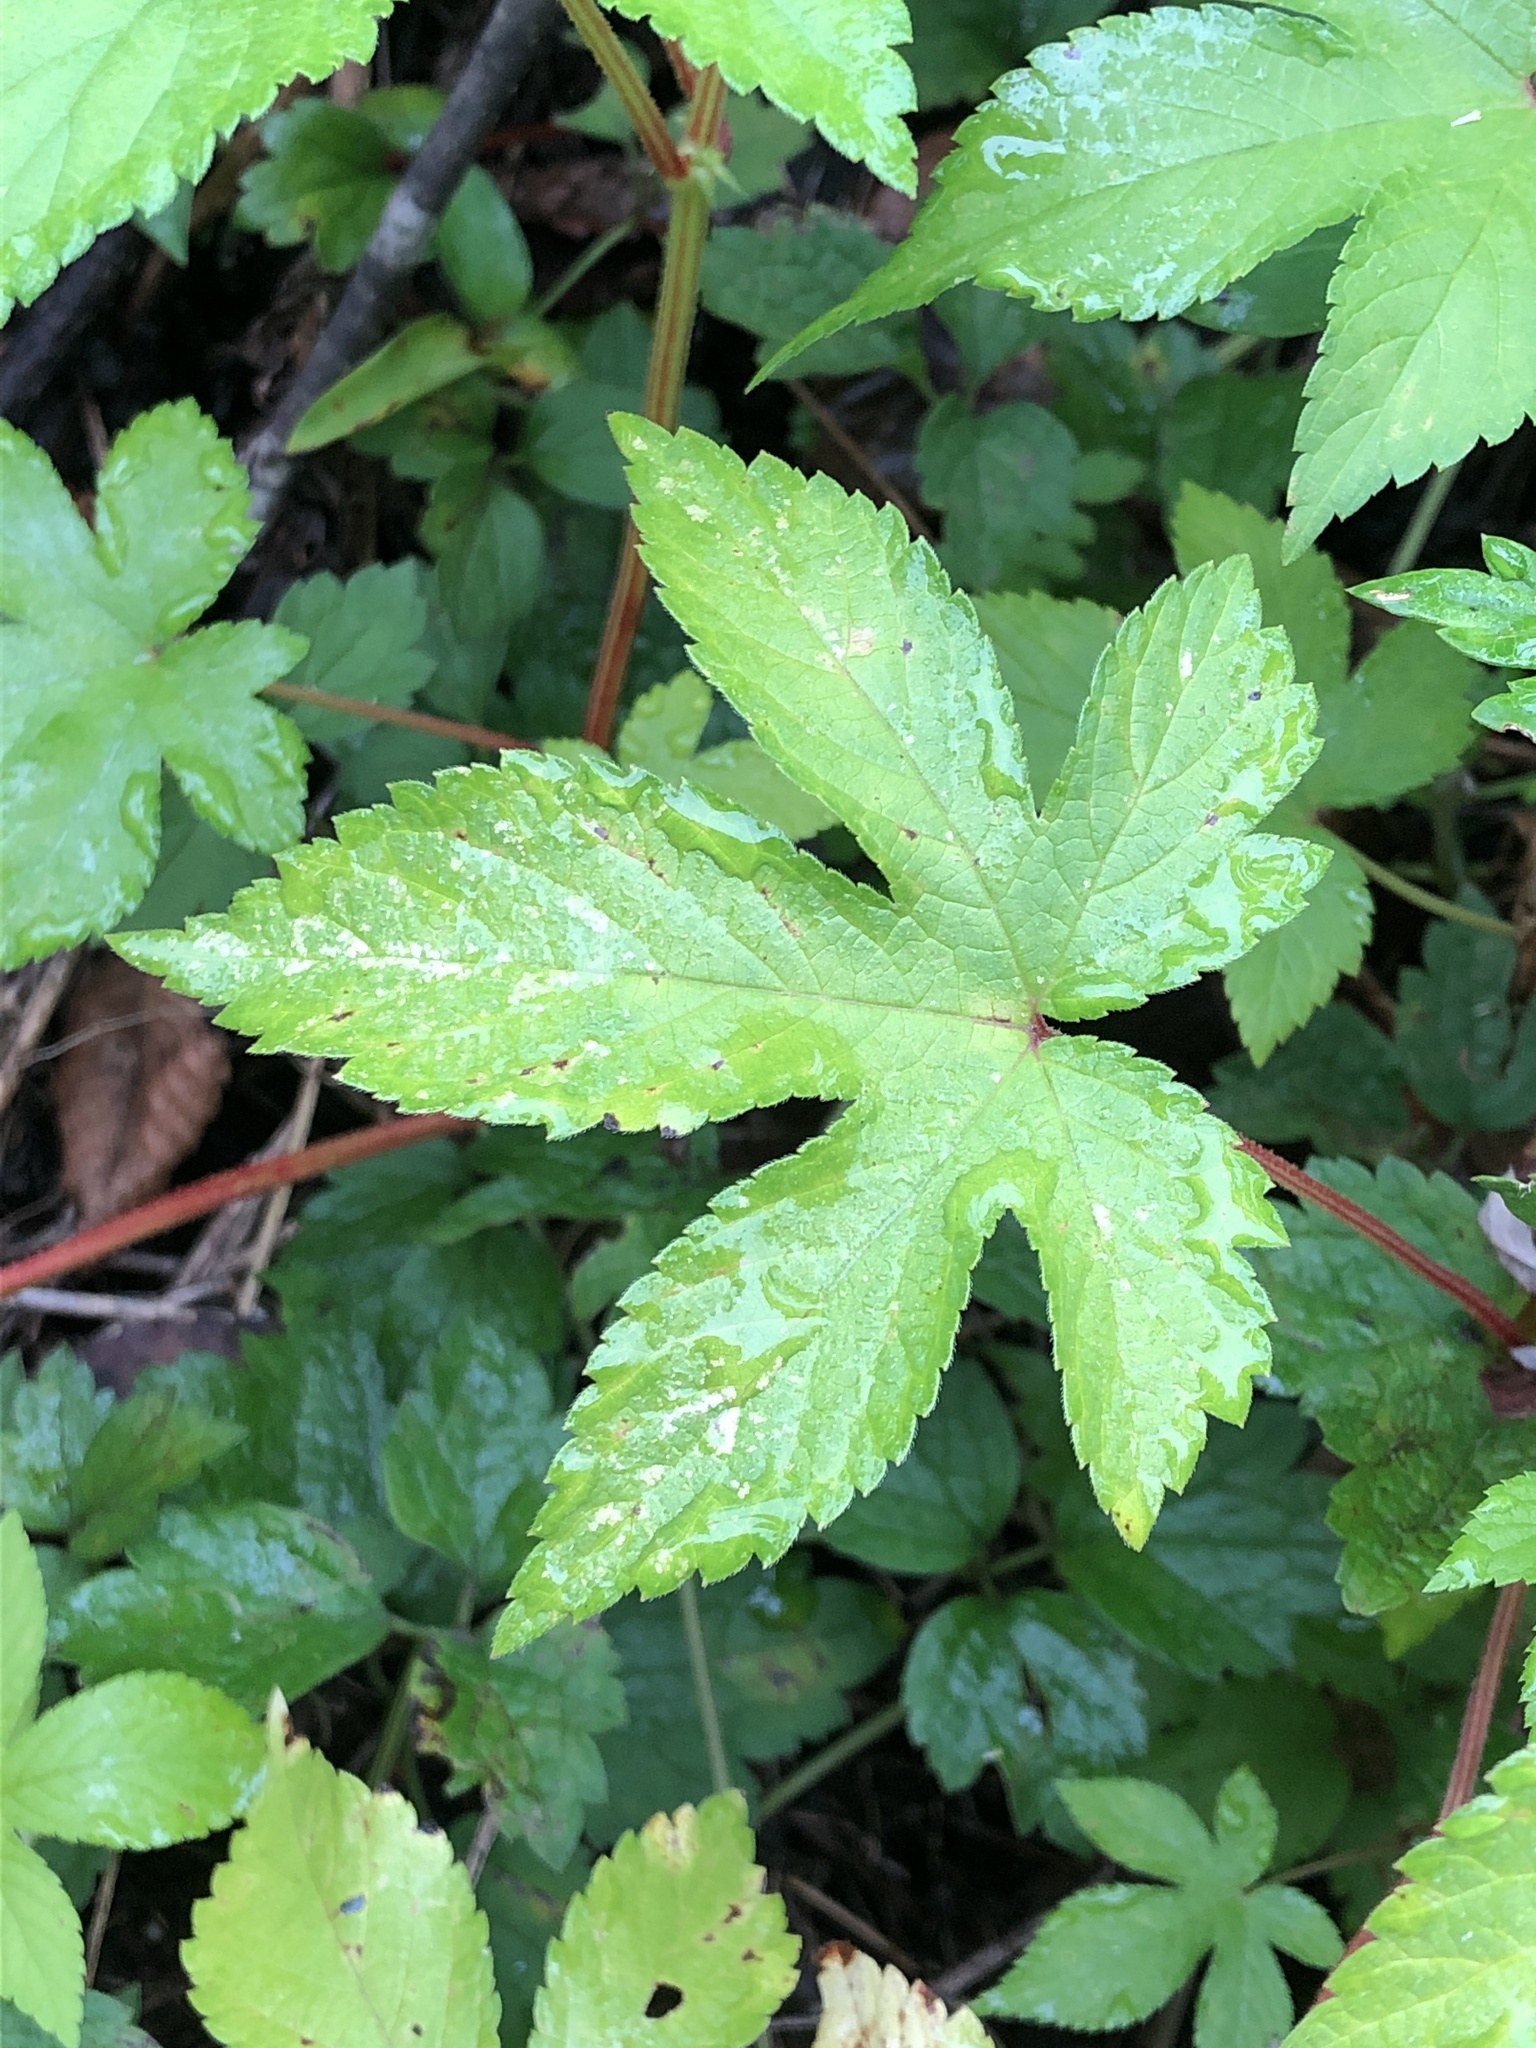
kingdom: Plantae
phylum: Tracheophyta
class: Magnoliopsida
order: Rosales
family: Cannabaceae
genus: Humulus
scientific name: Humulus scandens
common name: Japanese hop
